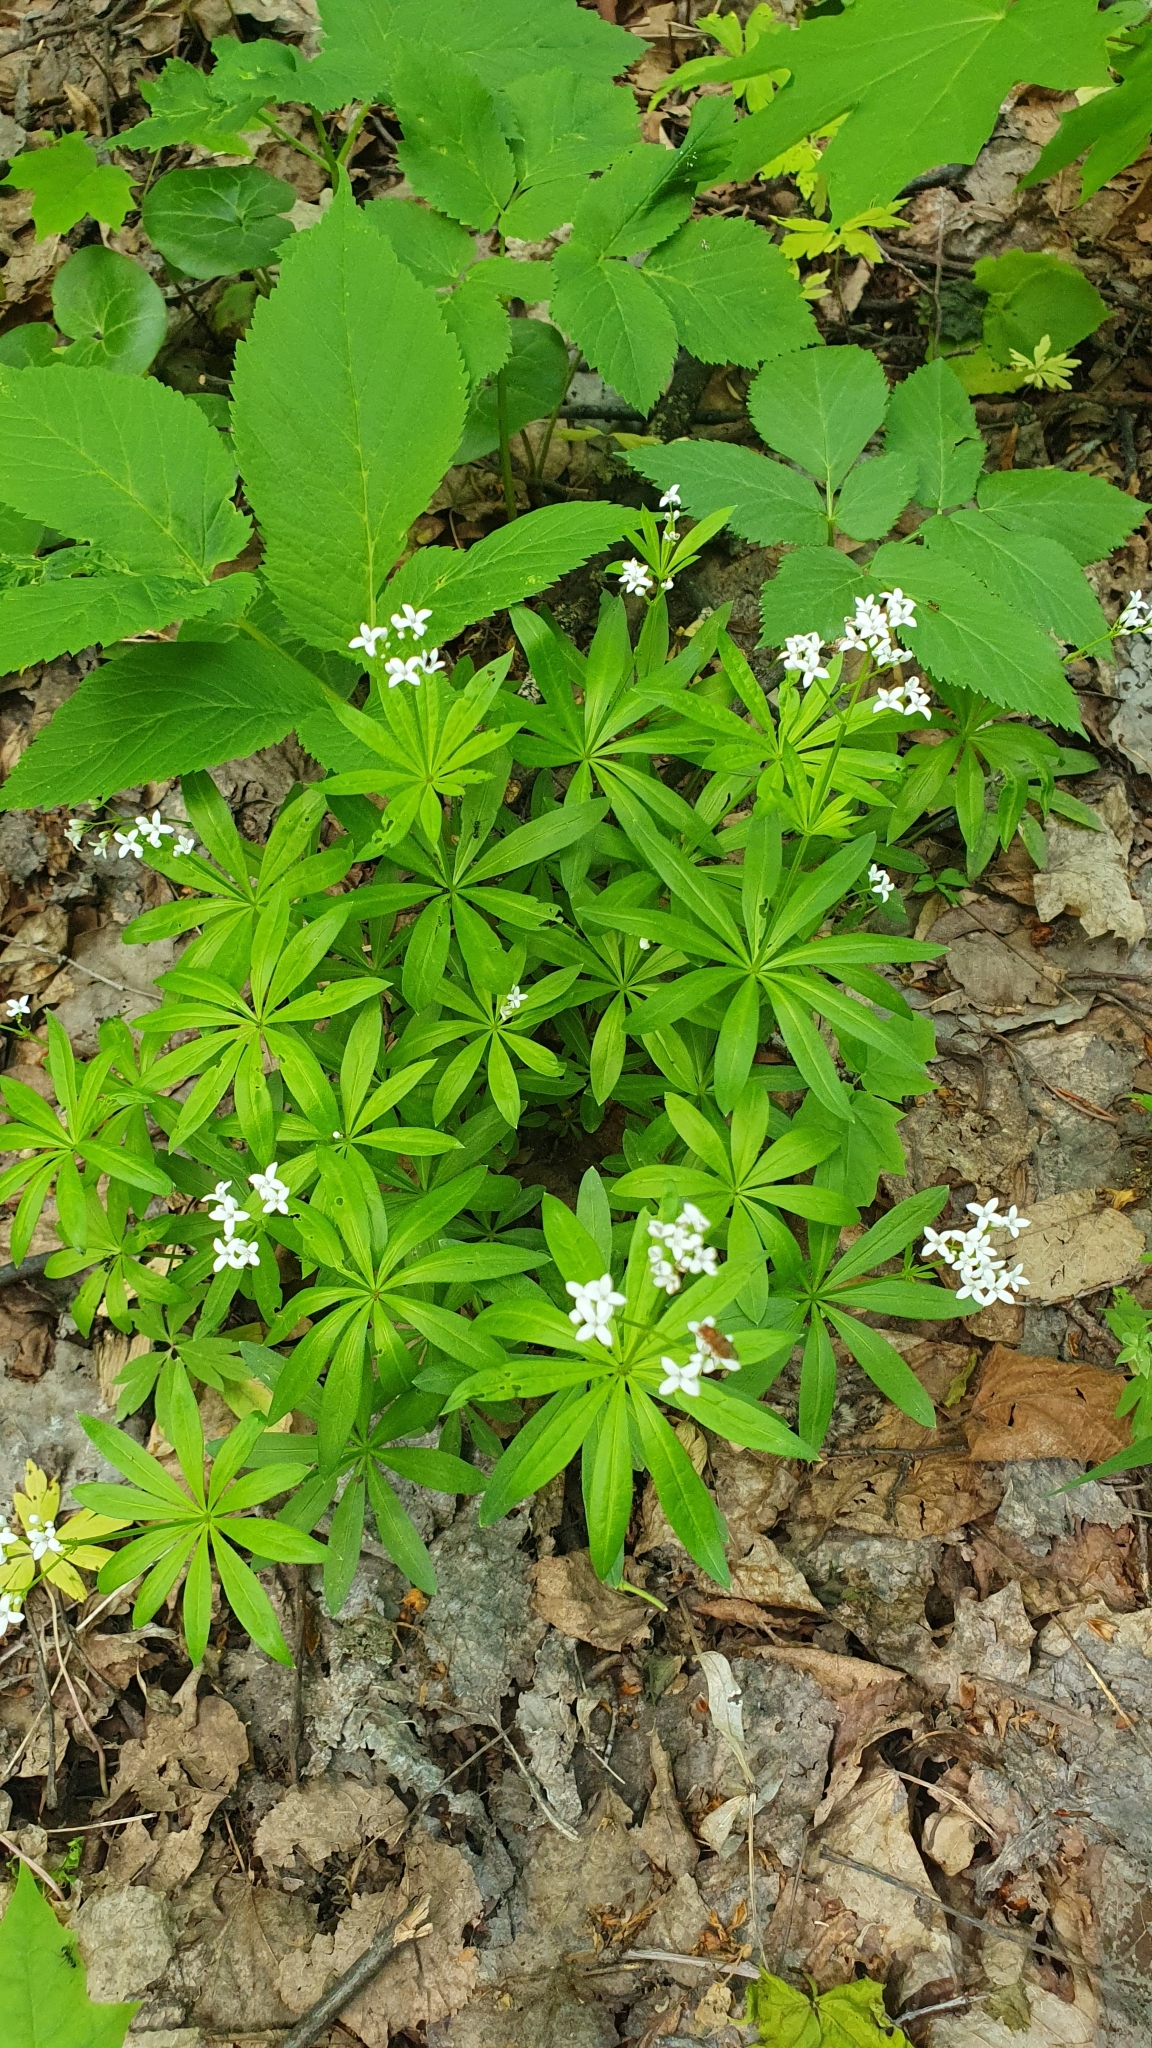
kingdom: Plantae
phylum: Tracheophyta
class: Magnoliopsida
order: Gentianales
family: Rubiaceae
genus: Galium
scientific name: Galium odoratum
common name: Sweet woodruff
